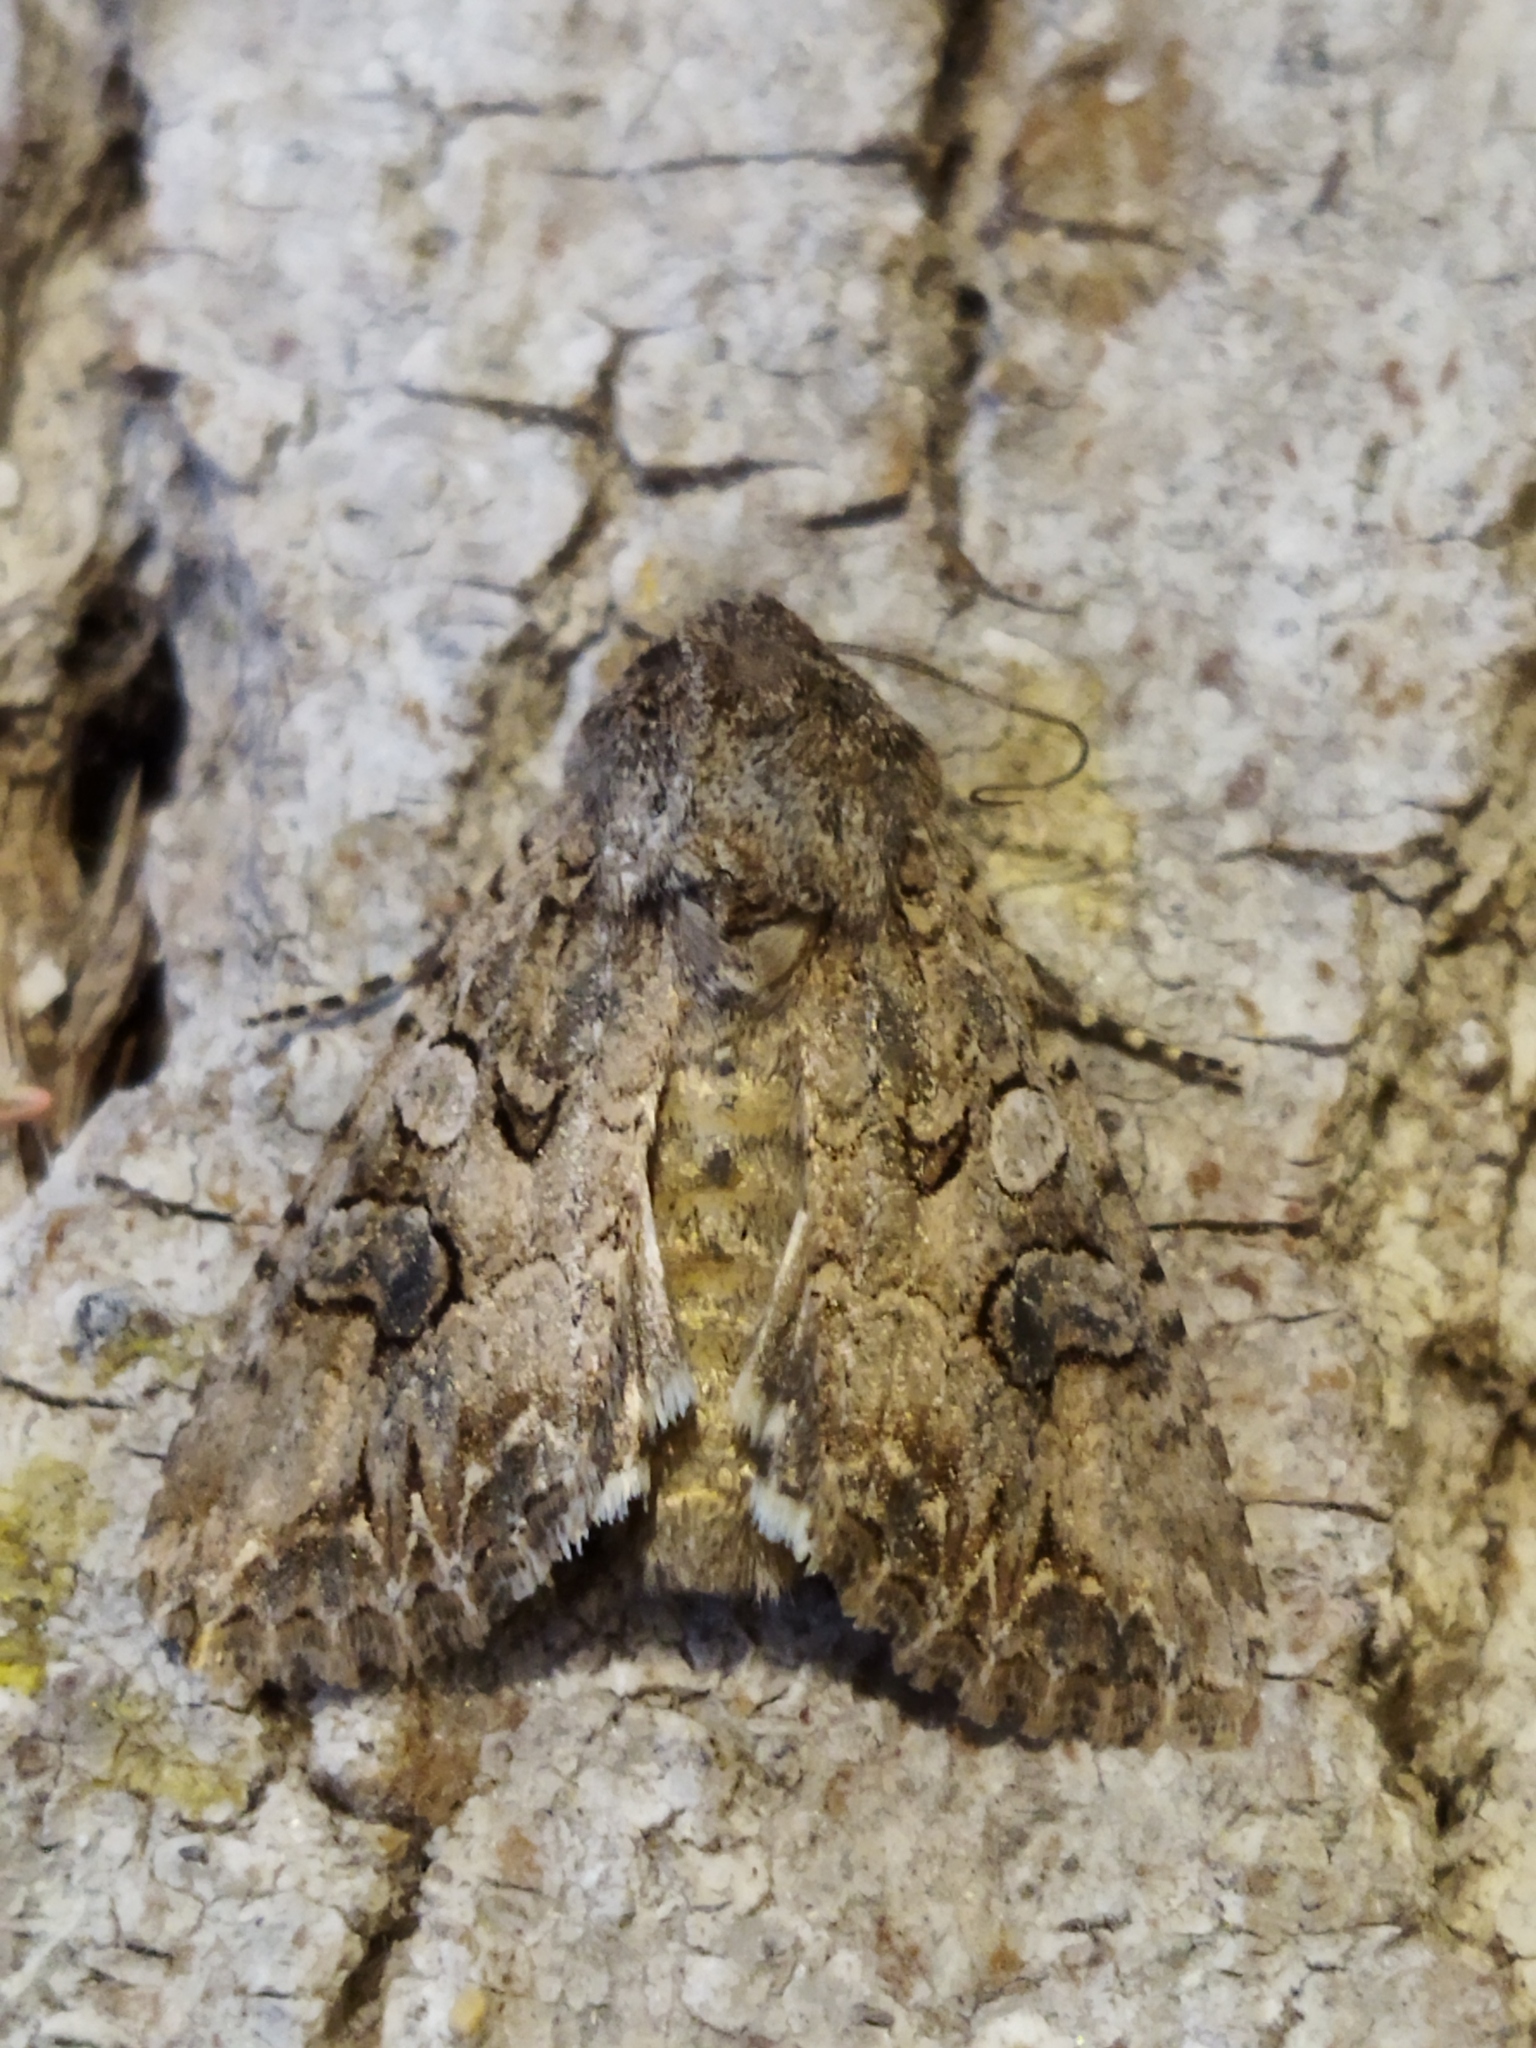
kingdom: Animalia
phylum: Arthropoda
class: Insecta
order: Lepidoptera
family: Noctuidae
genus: Anarta
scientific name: Anarta trifolii
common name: Clover cutworm moth
